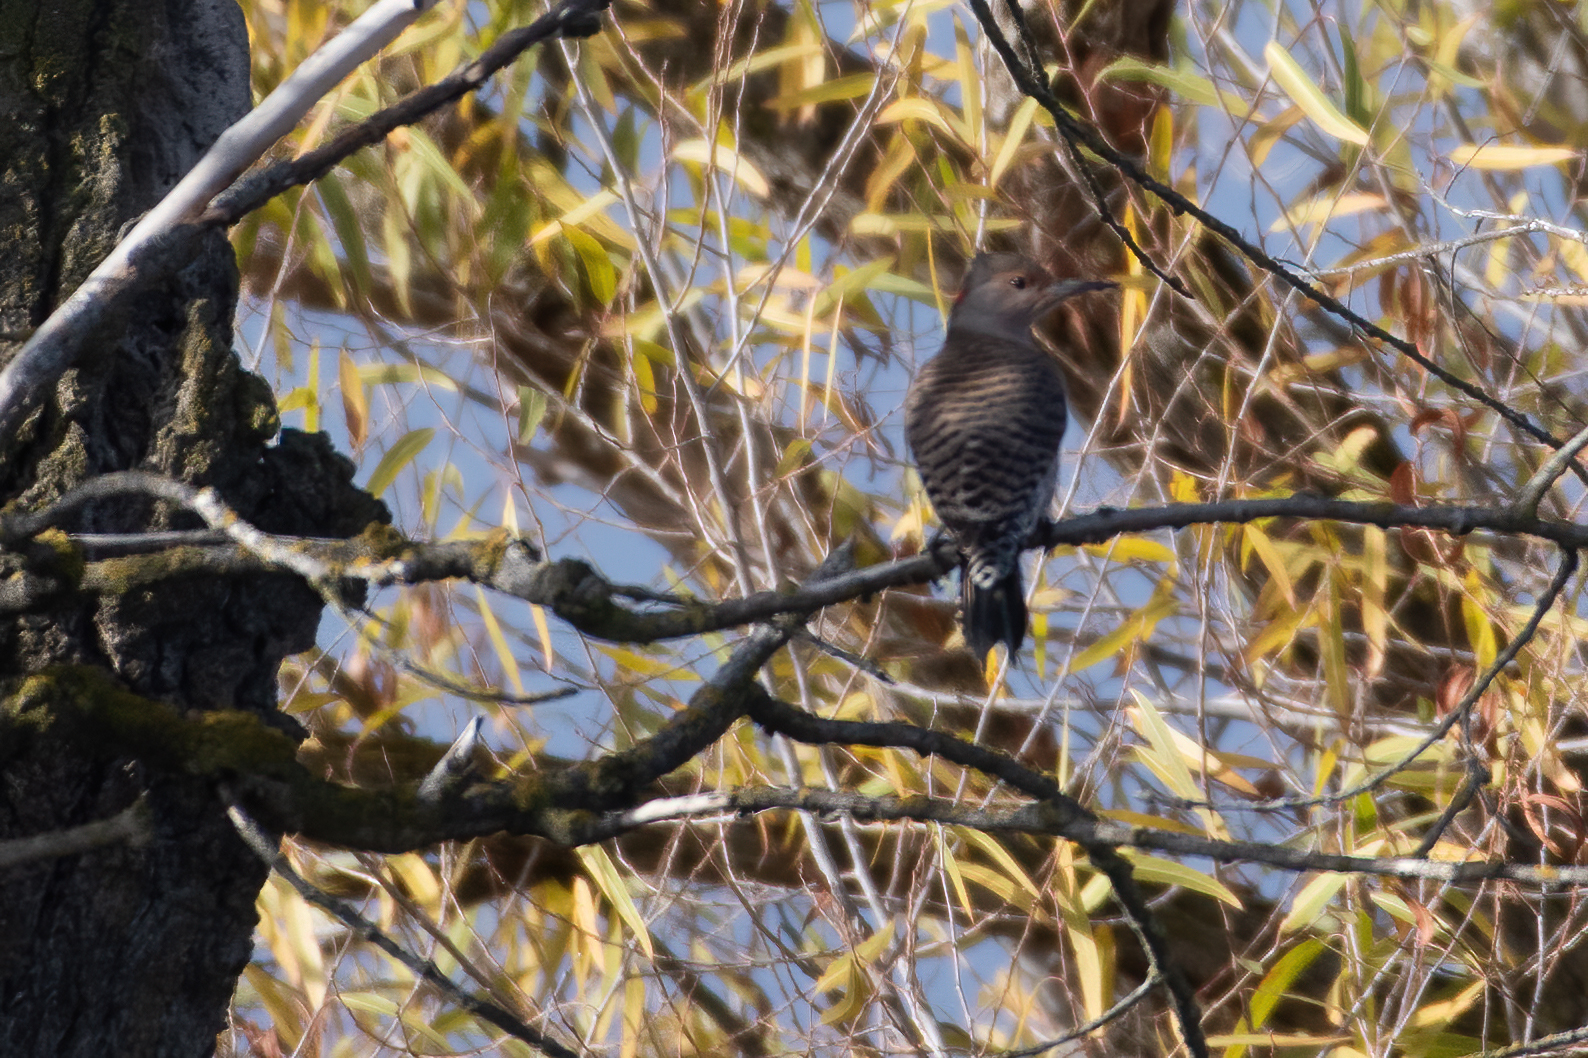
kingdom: Animalia
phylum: Chordata
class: Aves
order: Piciformes
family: Picidae
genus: Colaptes
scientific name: Colaptes auratus
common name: Northern flicker
